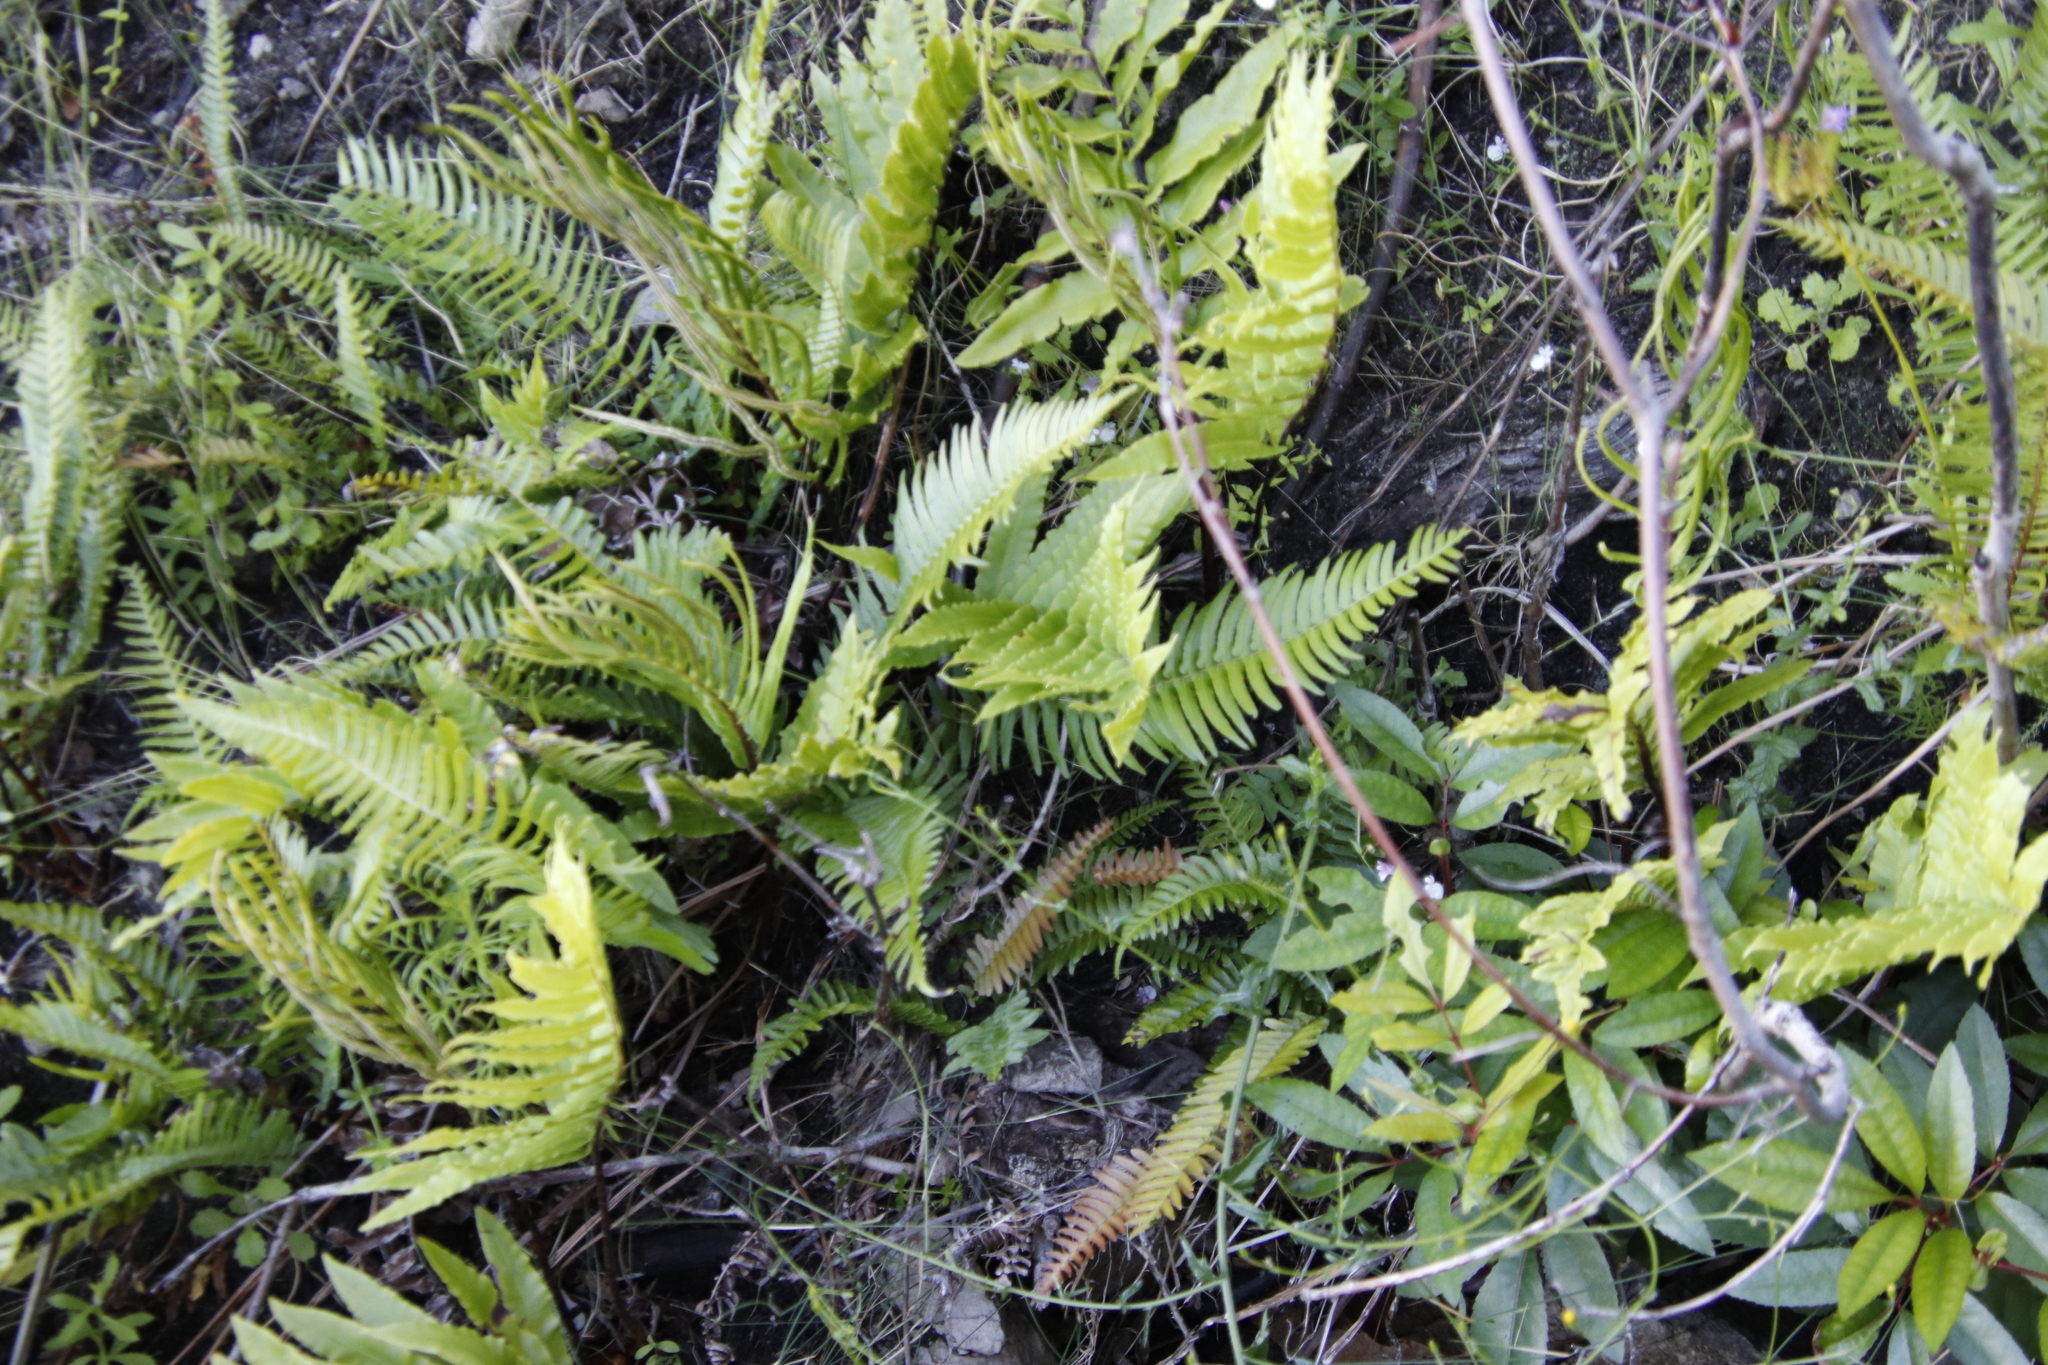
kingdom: Plantae
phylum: Tracheophyta
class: Polypodiopsida
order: Polypodiales
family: Blechnaceae
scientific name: Blechnaceae
